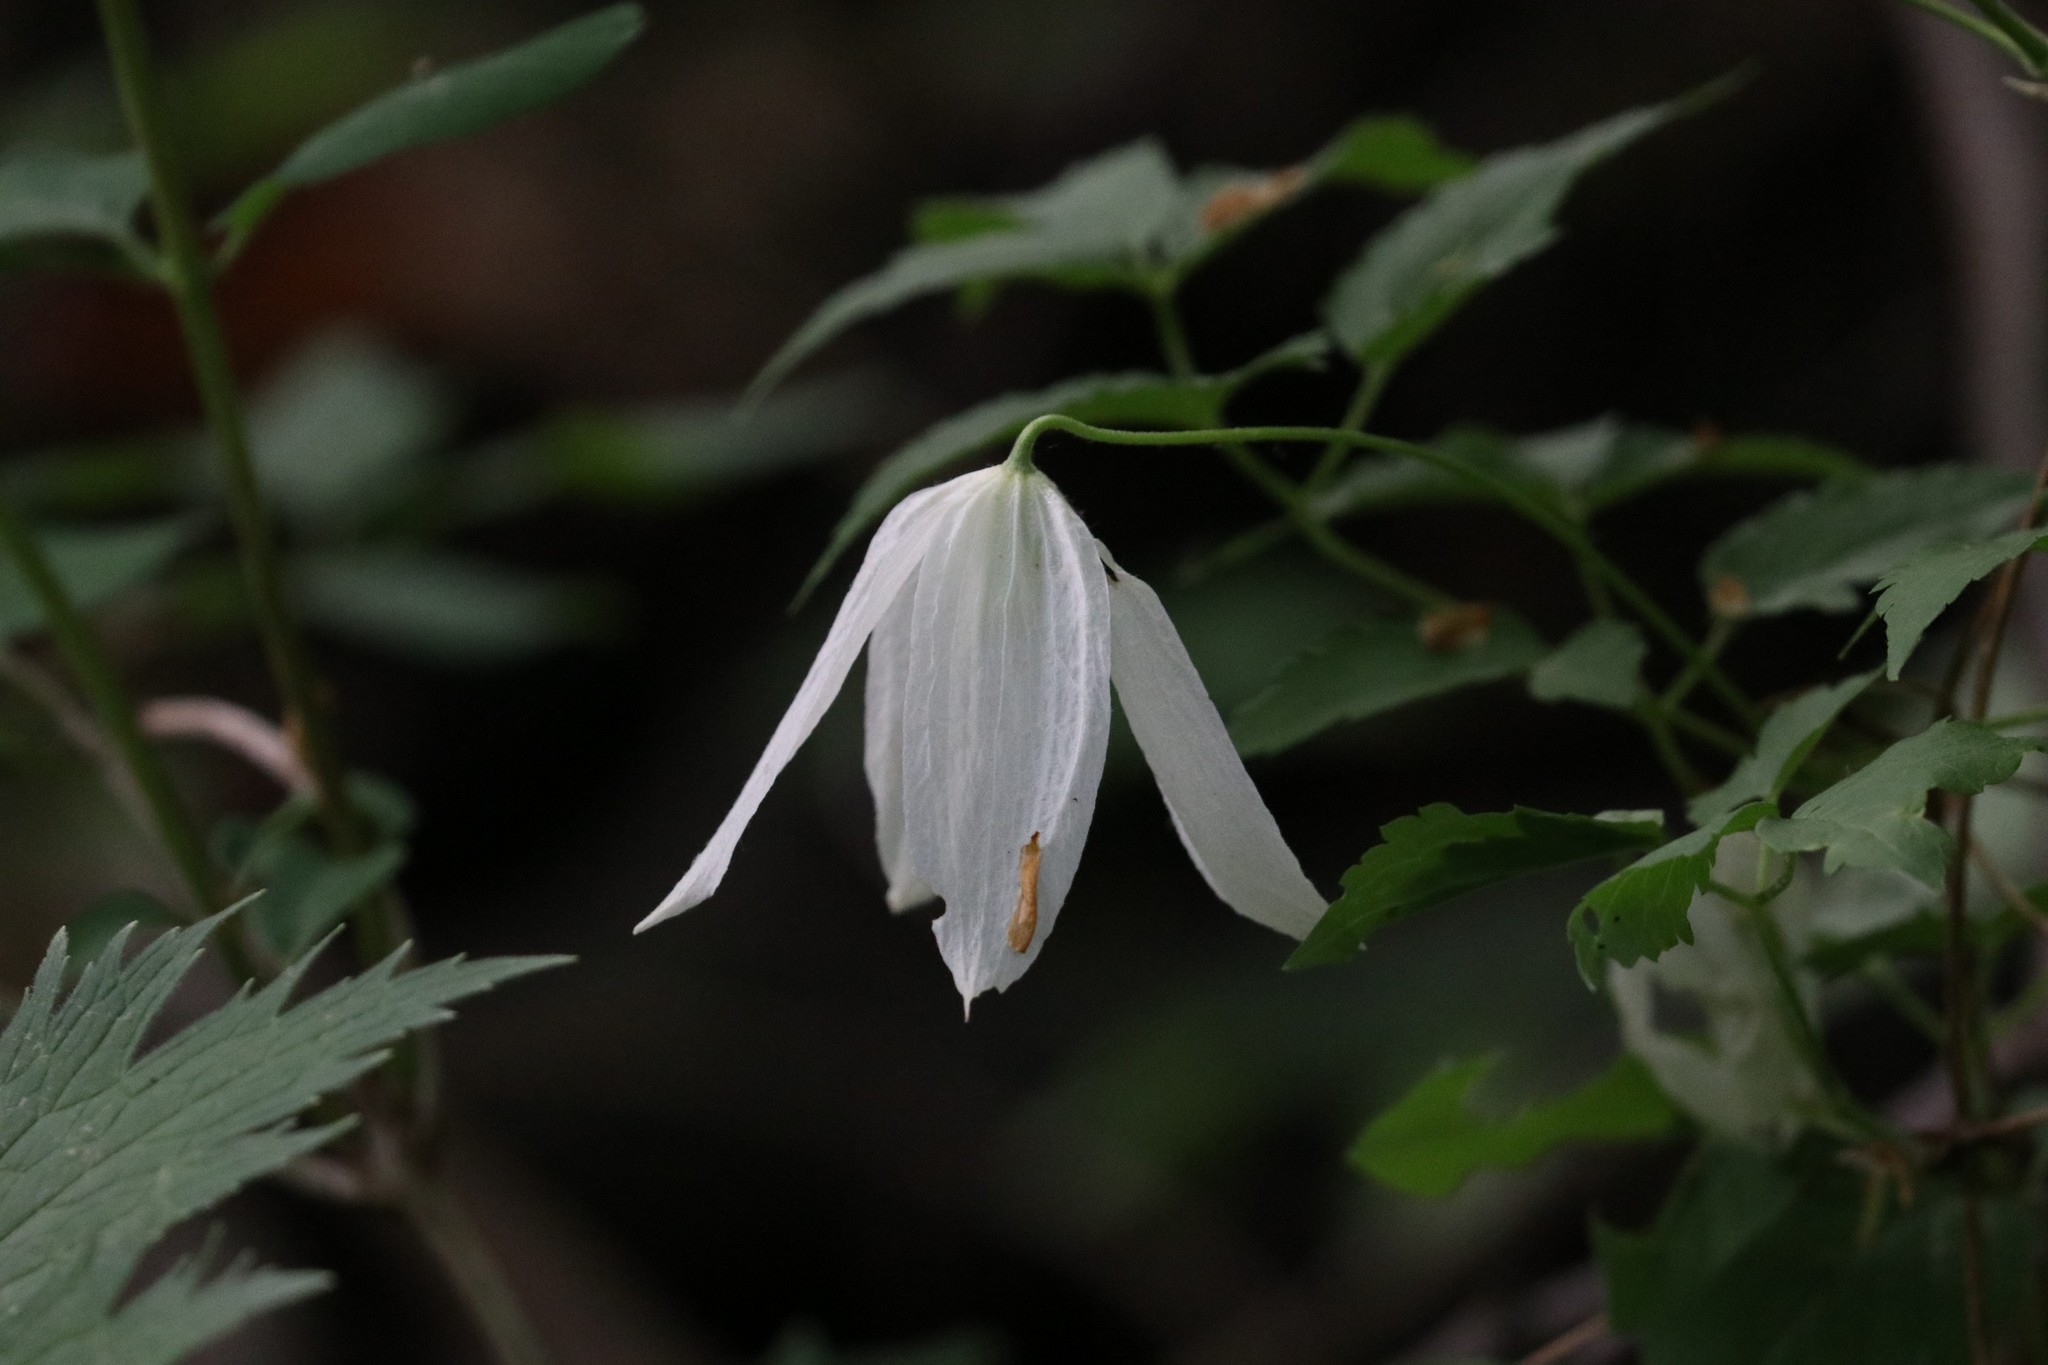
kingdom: Plantae
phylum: Tracheophyta
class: Magnoliopsida
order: Ranunculales
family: Ranunculaceae
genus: Clematis
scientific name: Clematis sibirica
